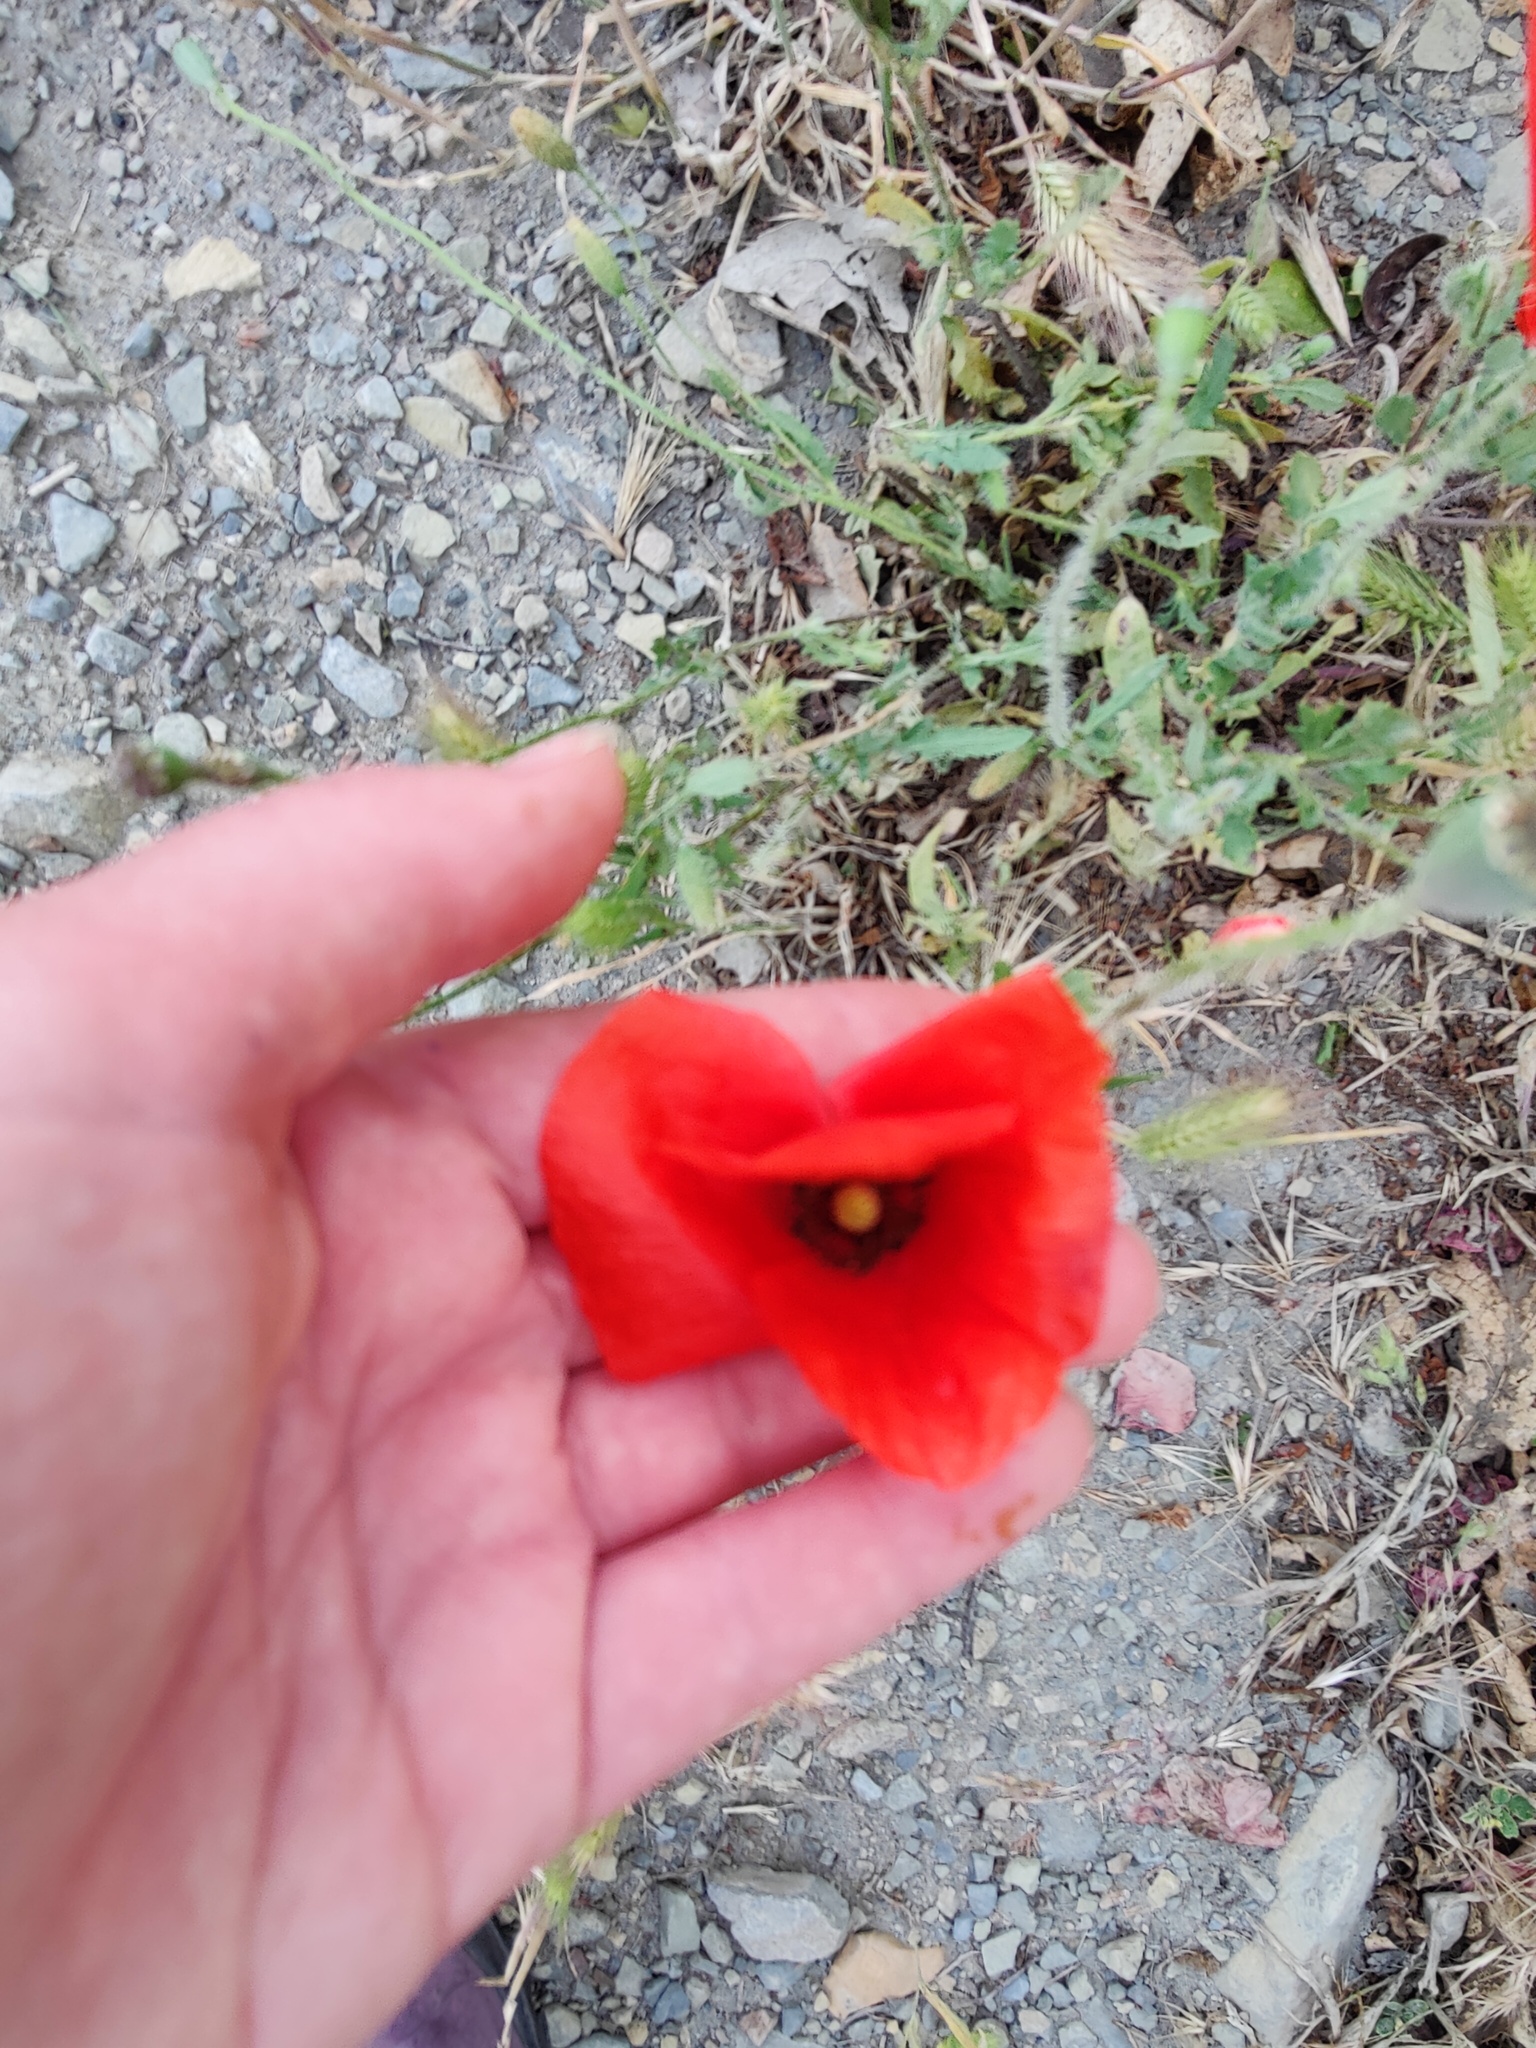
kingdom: Plantae
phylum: Tracheophyta
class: Magnoliopsida
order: Ranunculales
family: Papaveraceae
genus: Papaver
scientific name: Papaver rhoeas
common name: Corn poppy
